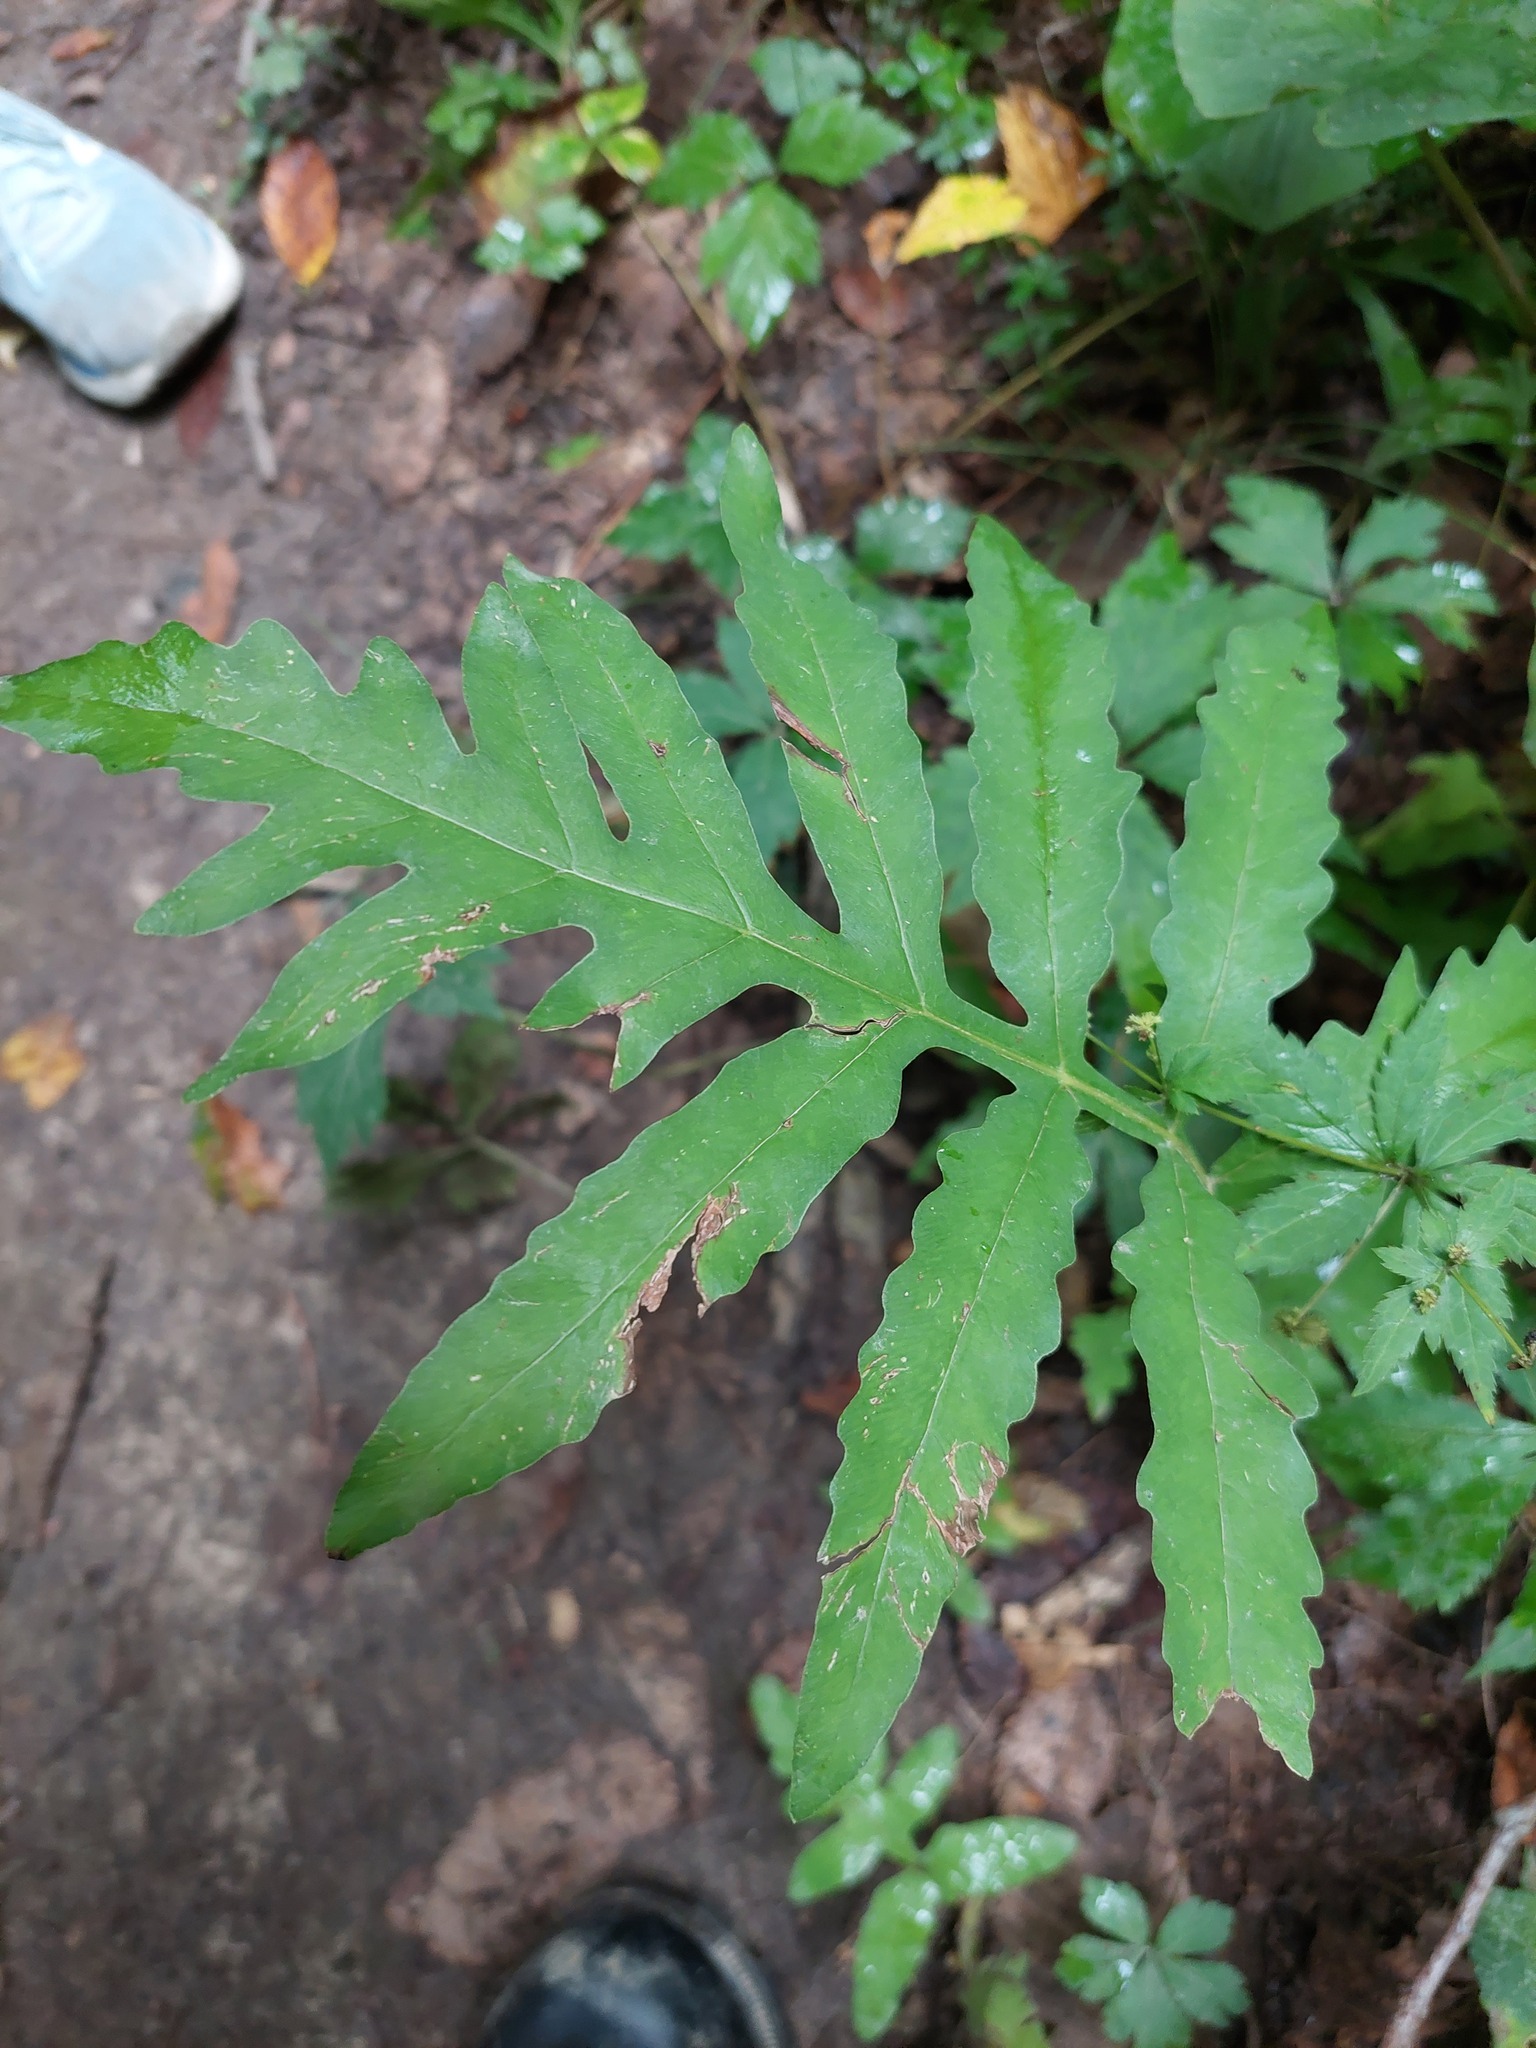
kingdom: Plantae
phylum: Tracheophyta
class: Polypodiopsida
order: Polypodiales
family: Onocleaceae
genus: Onoclea
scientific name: Onoclea sensibilis
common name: Sensitive fern
